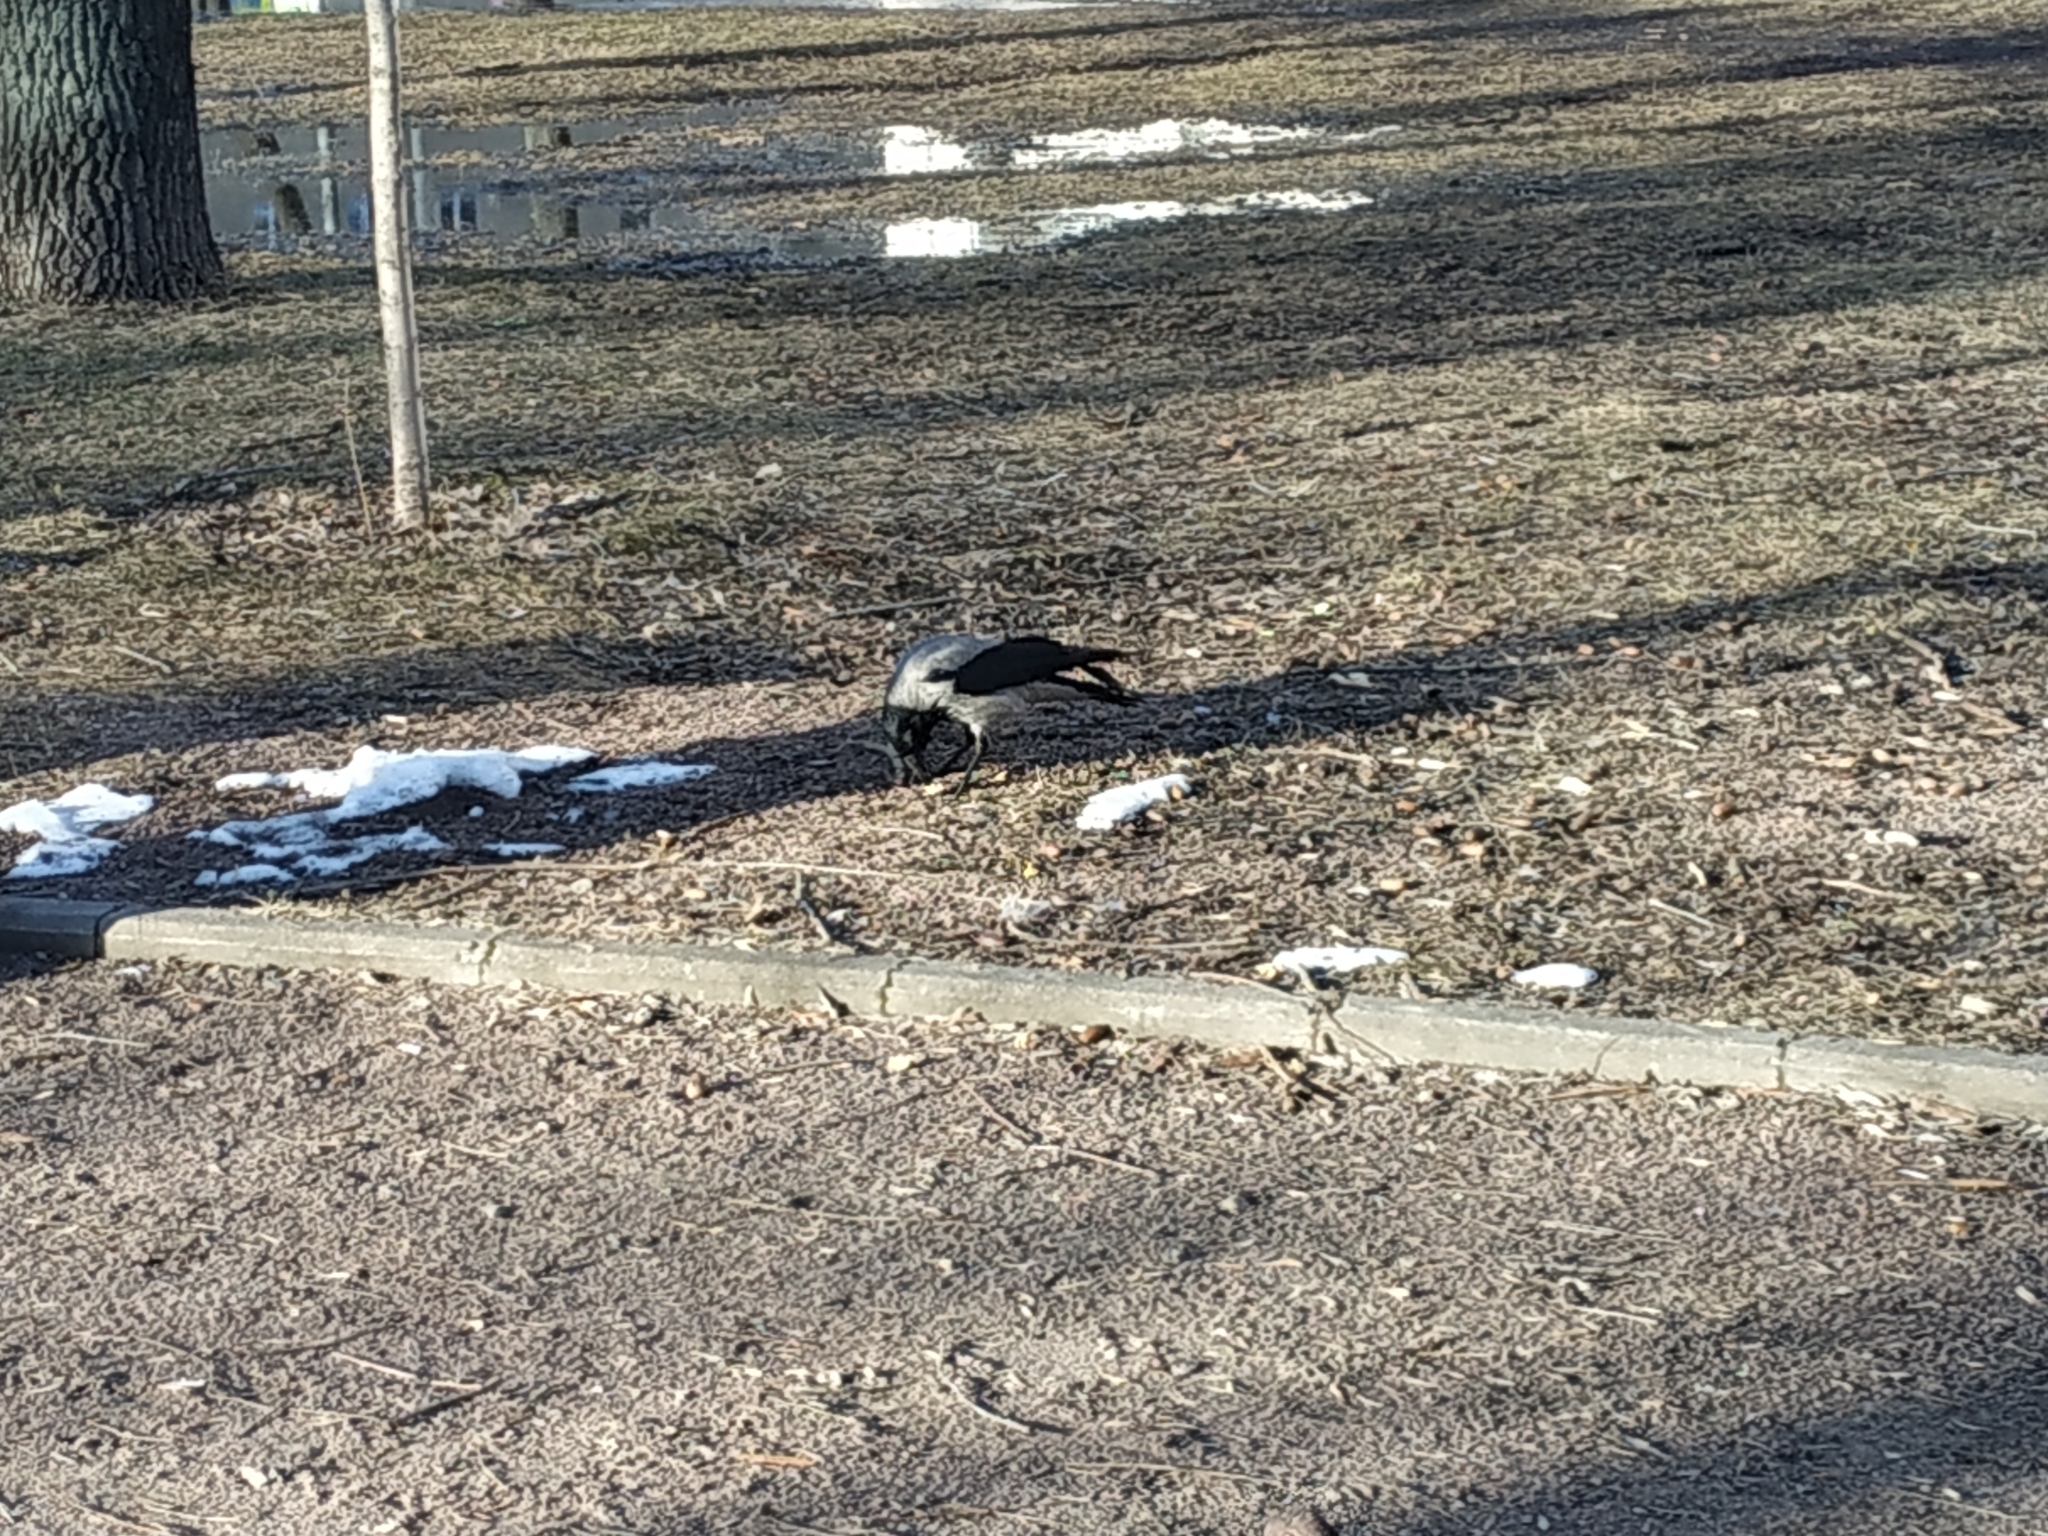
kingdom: Animalia
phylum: Chordata
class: Aves
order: Passeriformes
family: Corvidae
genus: Corvus
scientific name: Corvus cornix
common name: Hooded crow
